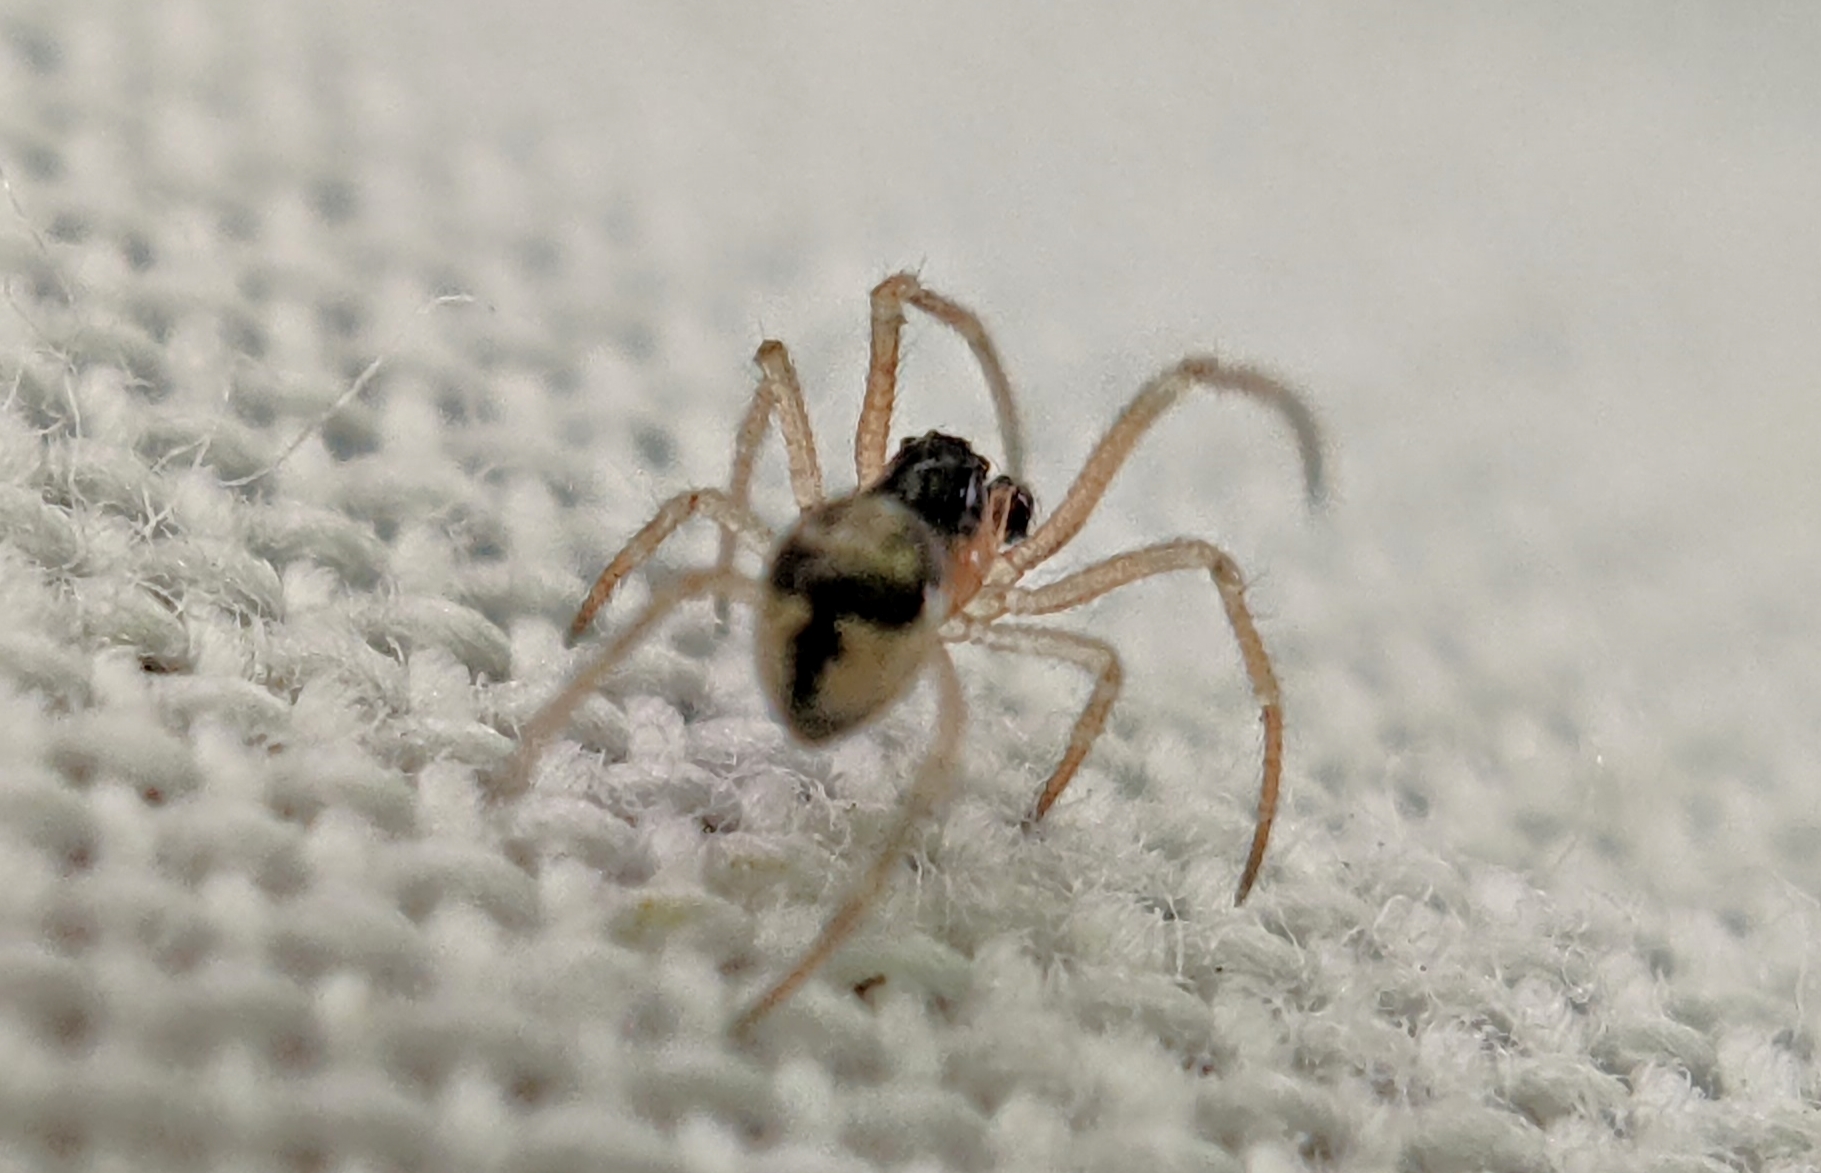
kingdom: Animalia
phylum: Arthropoda
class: Arachnida
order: Araneae
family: Theridiidae
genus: Paidiscura
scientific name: Paidiscura pallens
